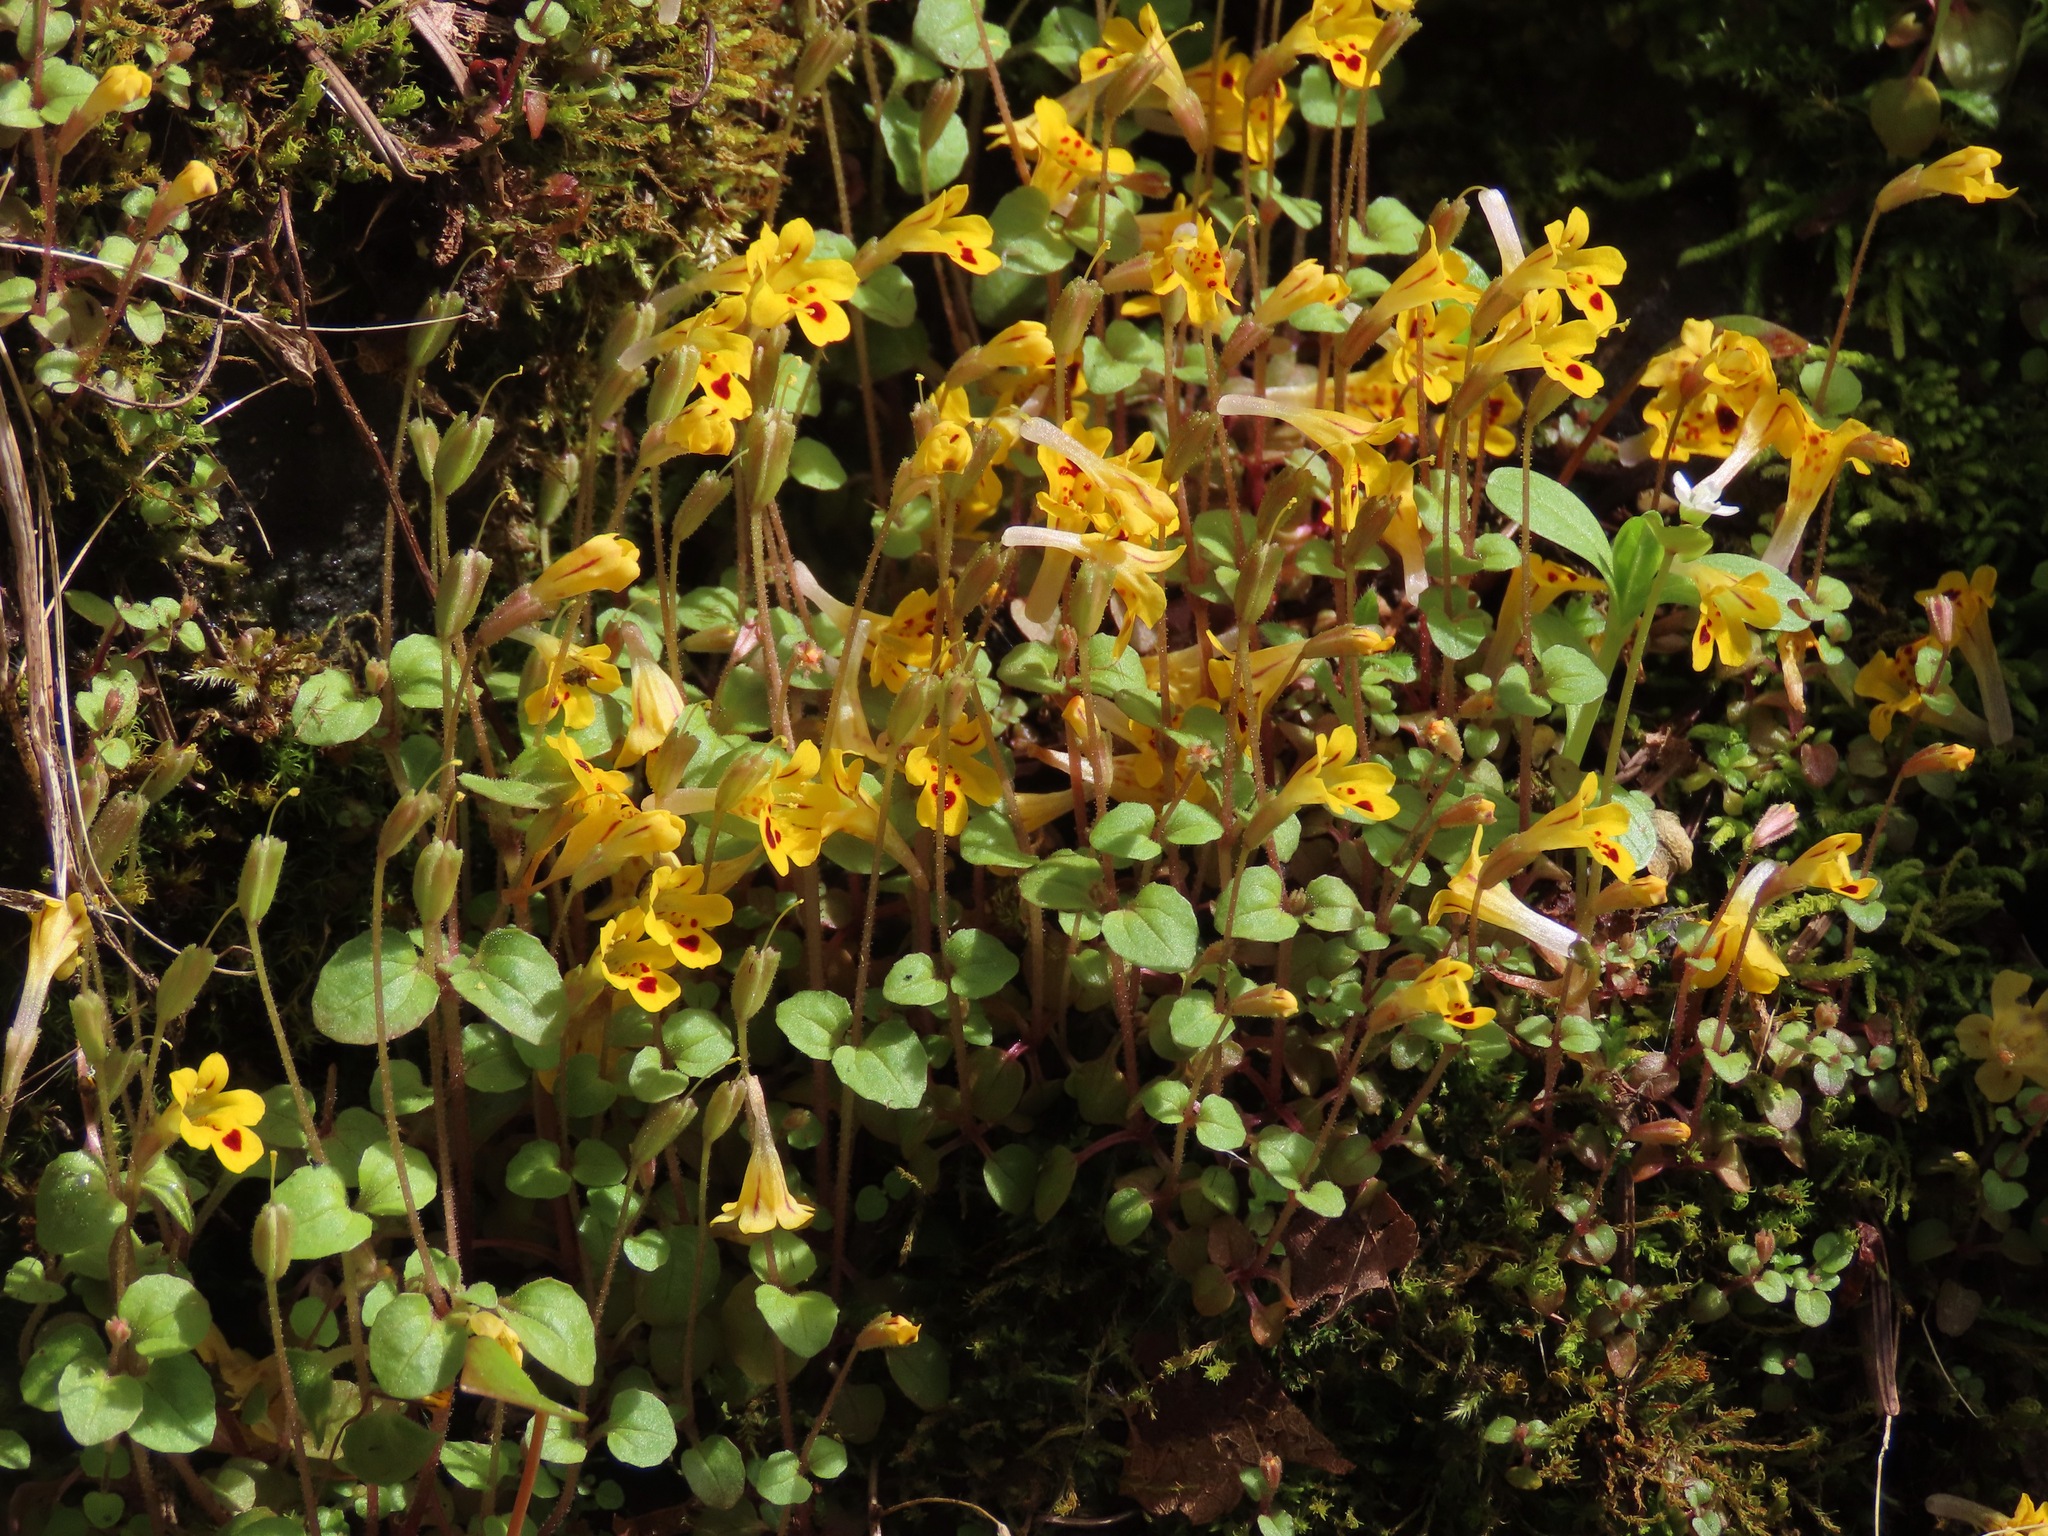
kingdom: Plantae
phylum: Tracheophyta
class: Magnoliopsida
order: Lamiales
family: Phrymaceae
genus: Erythranthe
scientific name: Erythranthe alsinoides
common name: Chickweed monkeyflower
